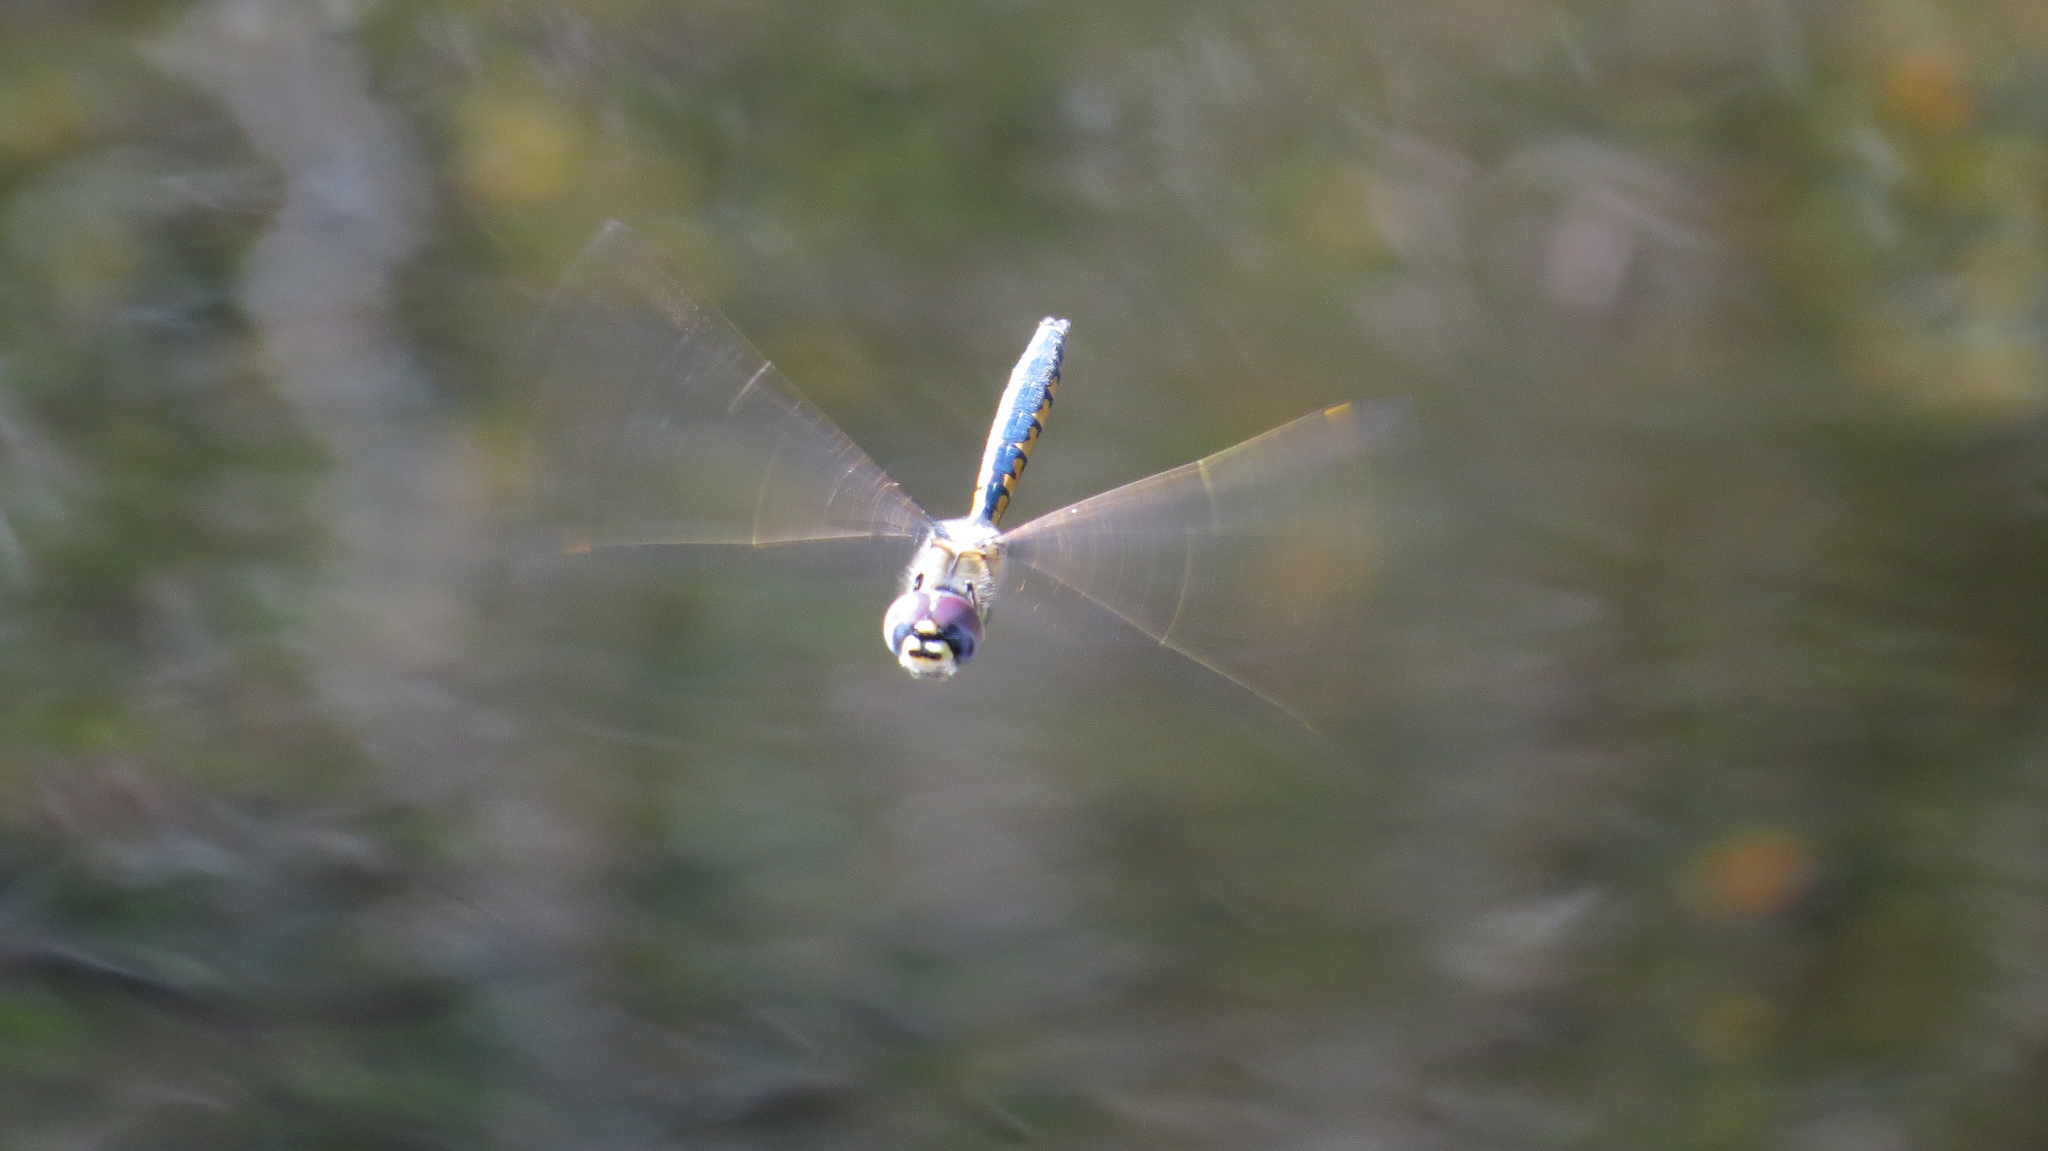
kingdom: Animalia
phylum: Arthropoda
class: Insecta
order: Odonata
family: Corduliidae
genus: Hemicordulia
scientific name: Hemicordulia tau
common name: Tau emerald
